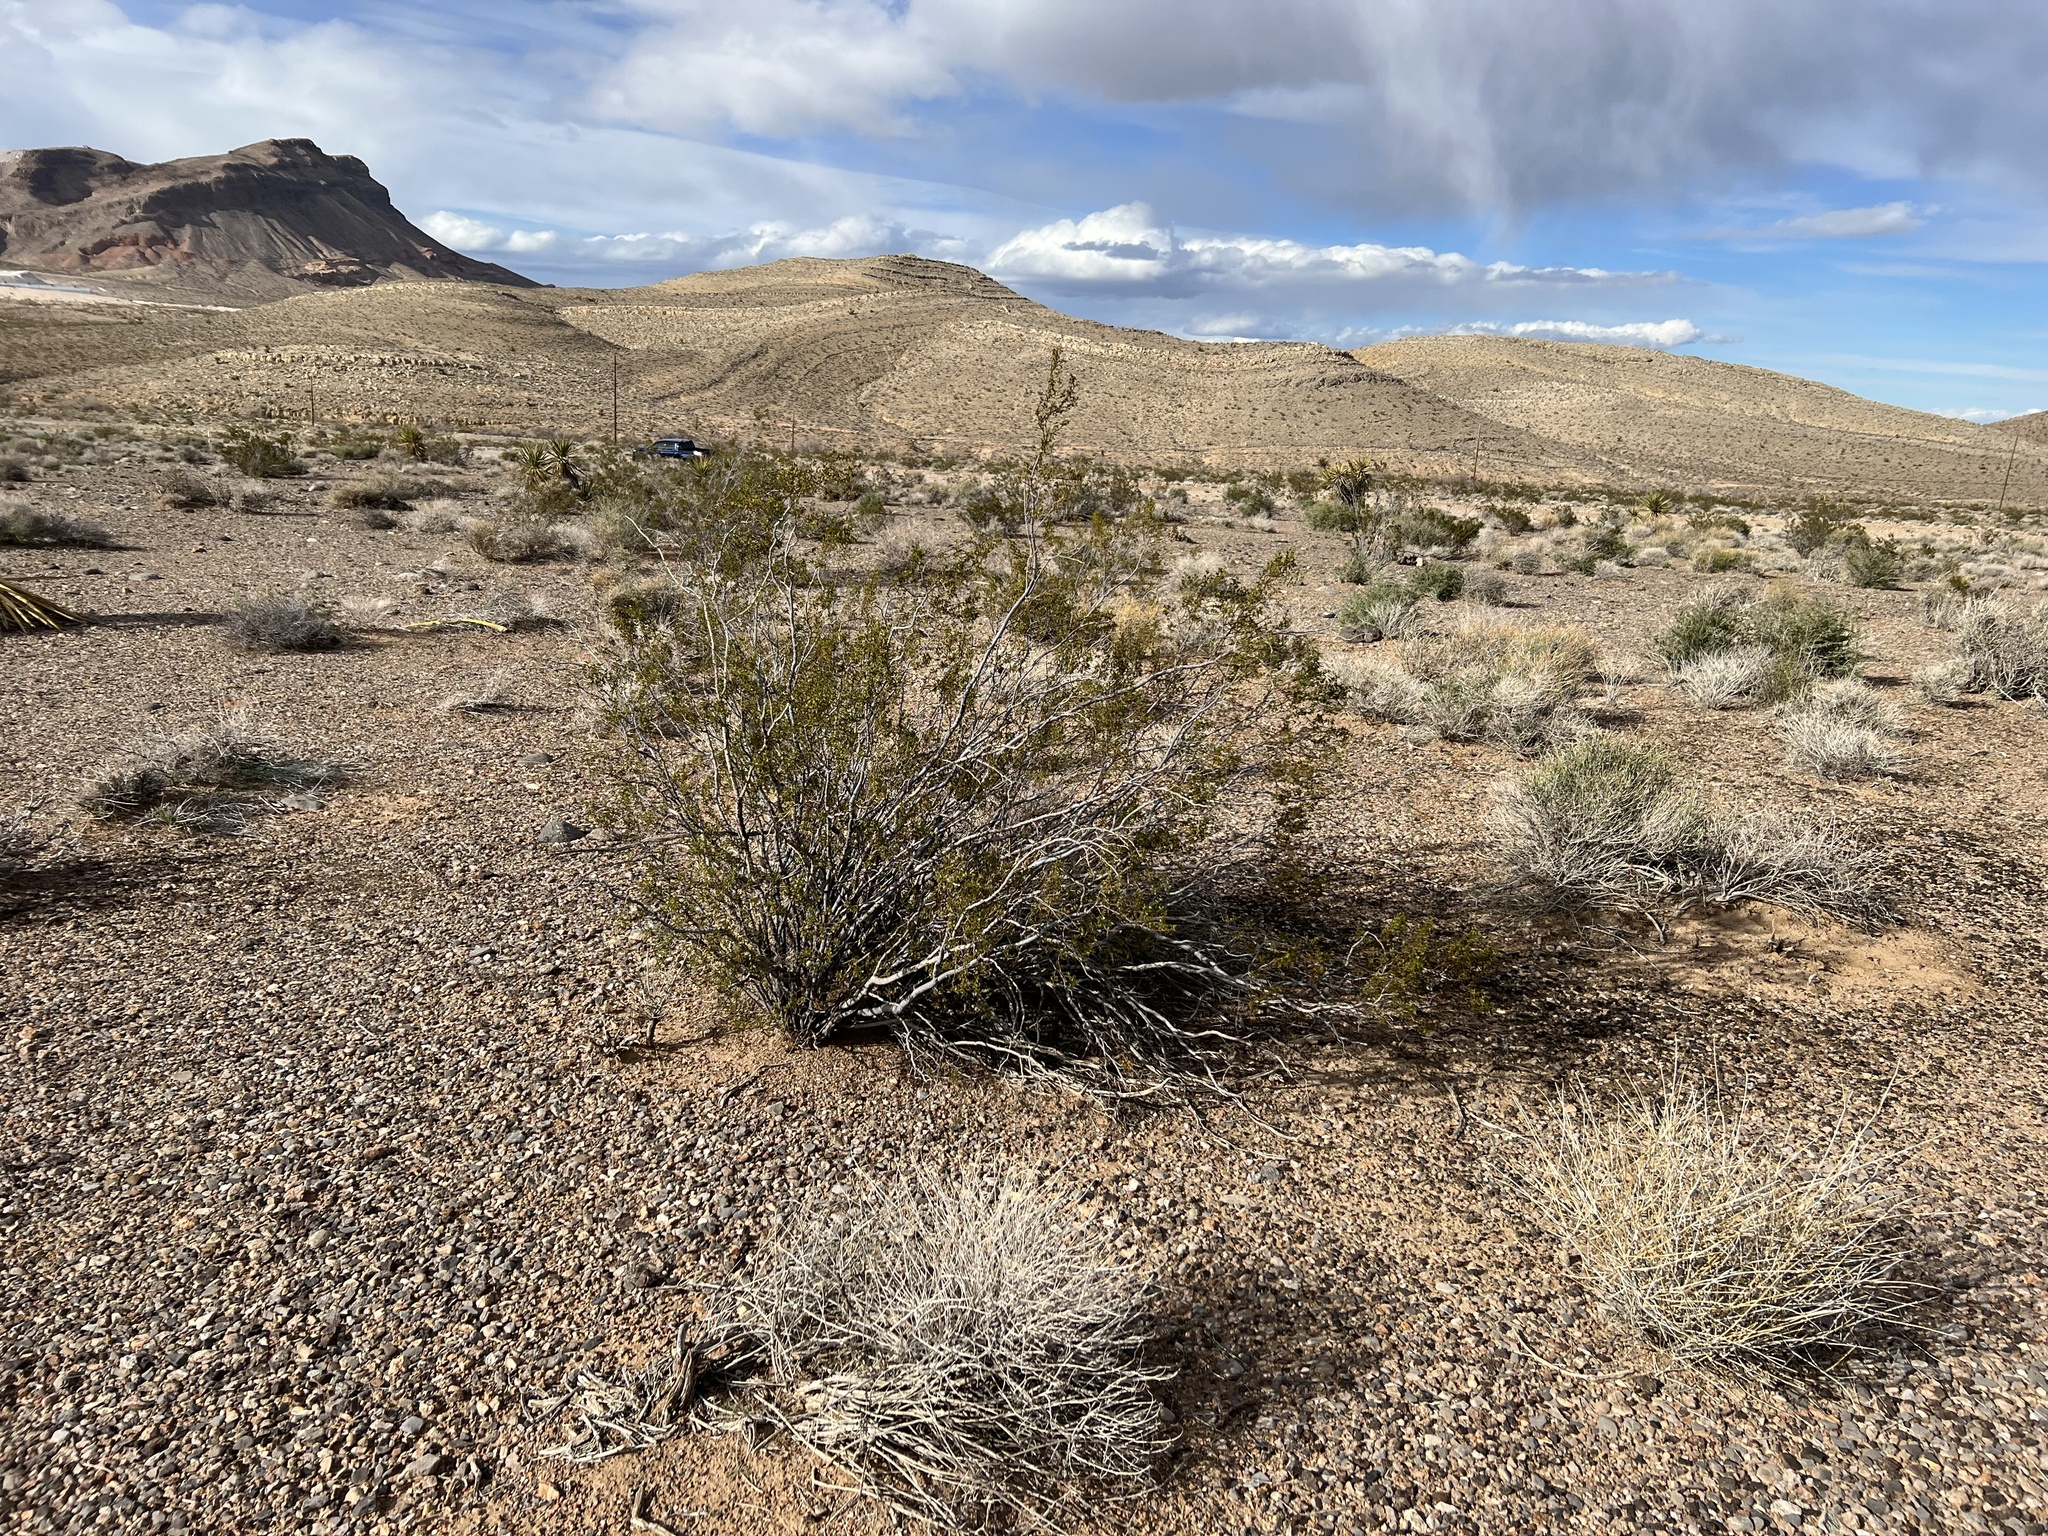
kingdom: Plantae
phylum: Tracheophyta
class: Magnoliopsida
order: Zygophyllales
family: Zygophyllaceae
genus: Larrea
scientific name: Larrea tridentata
